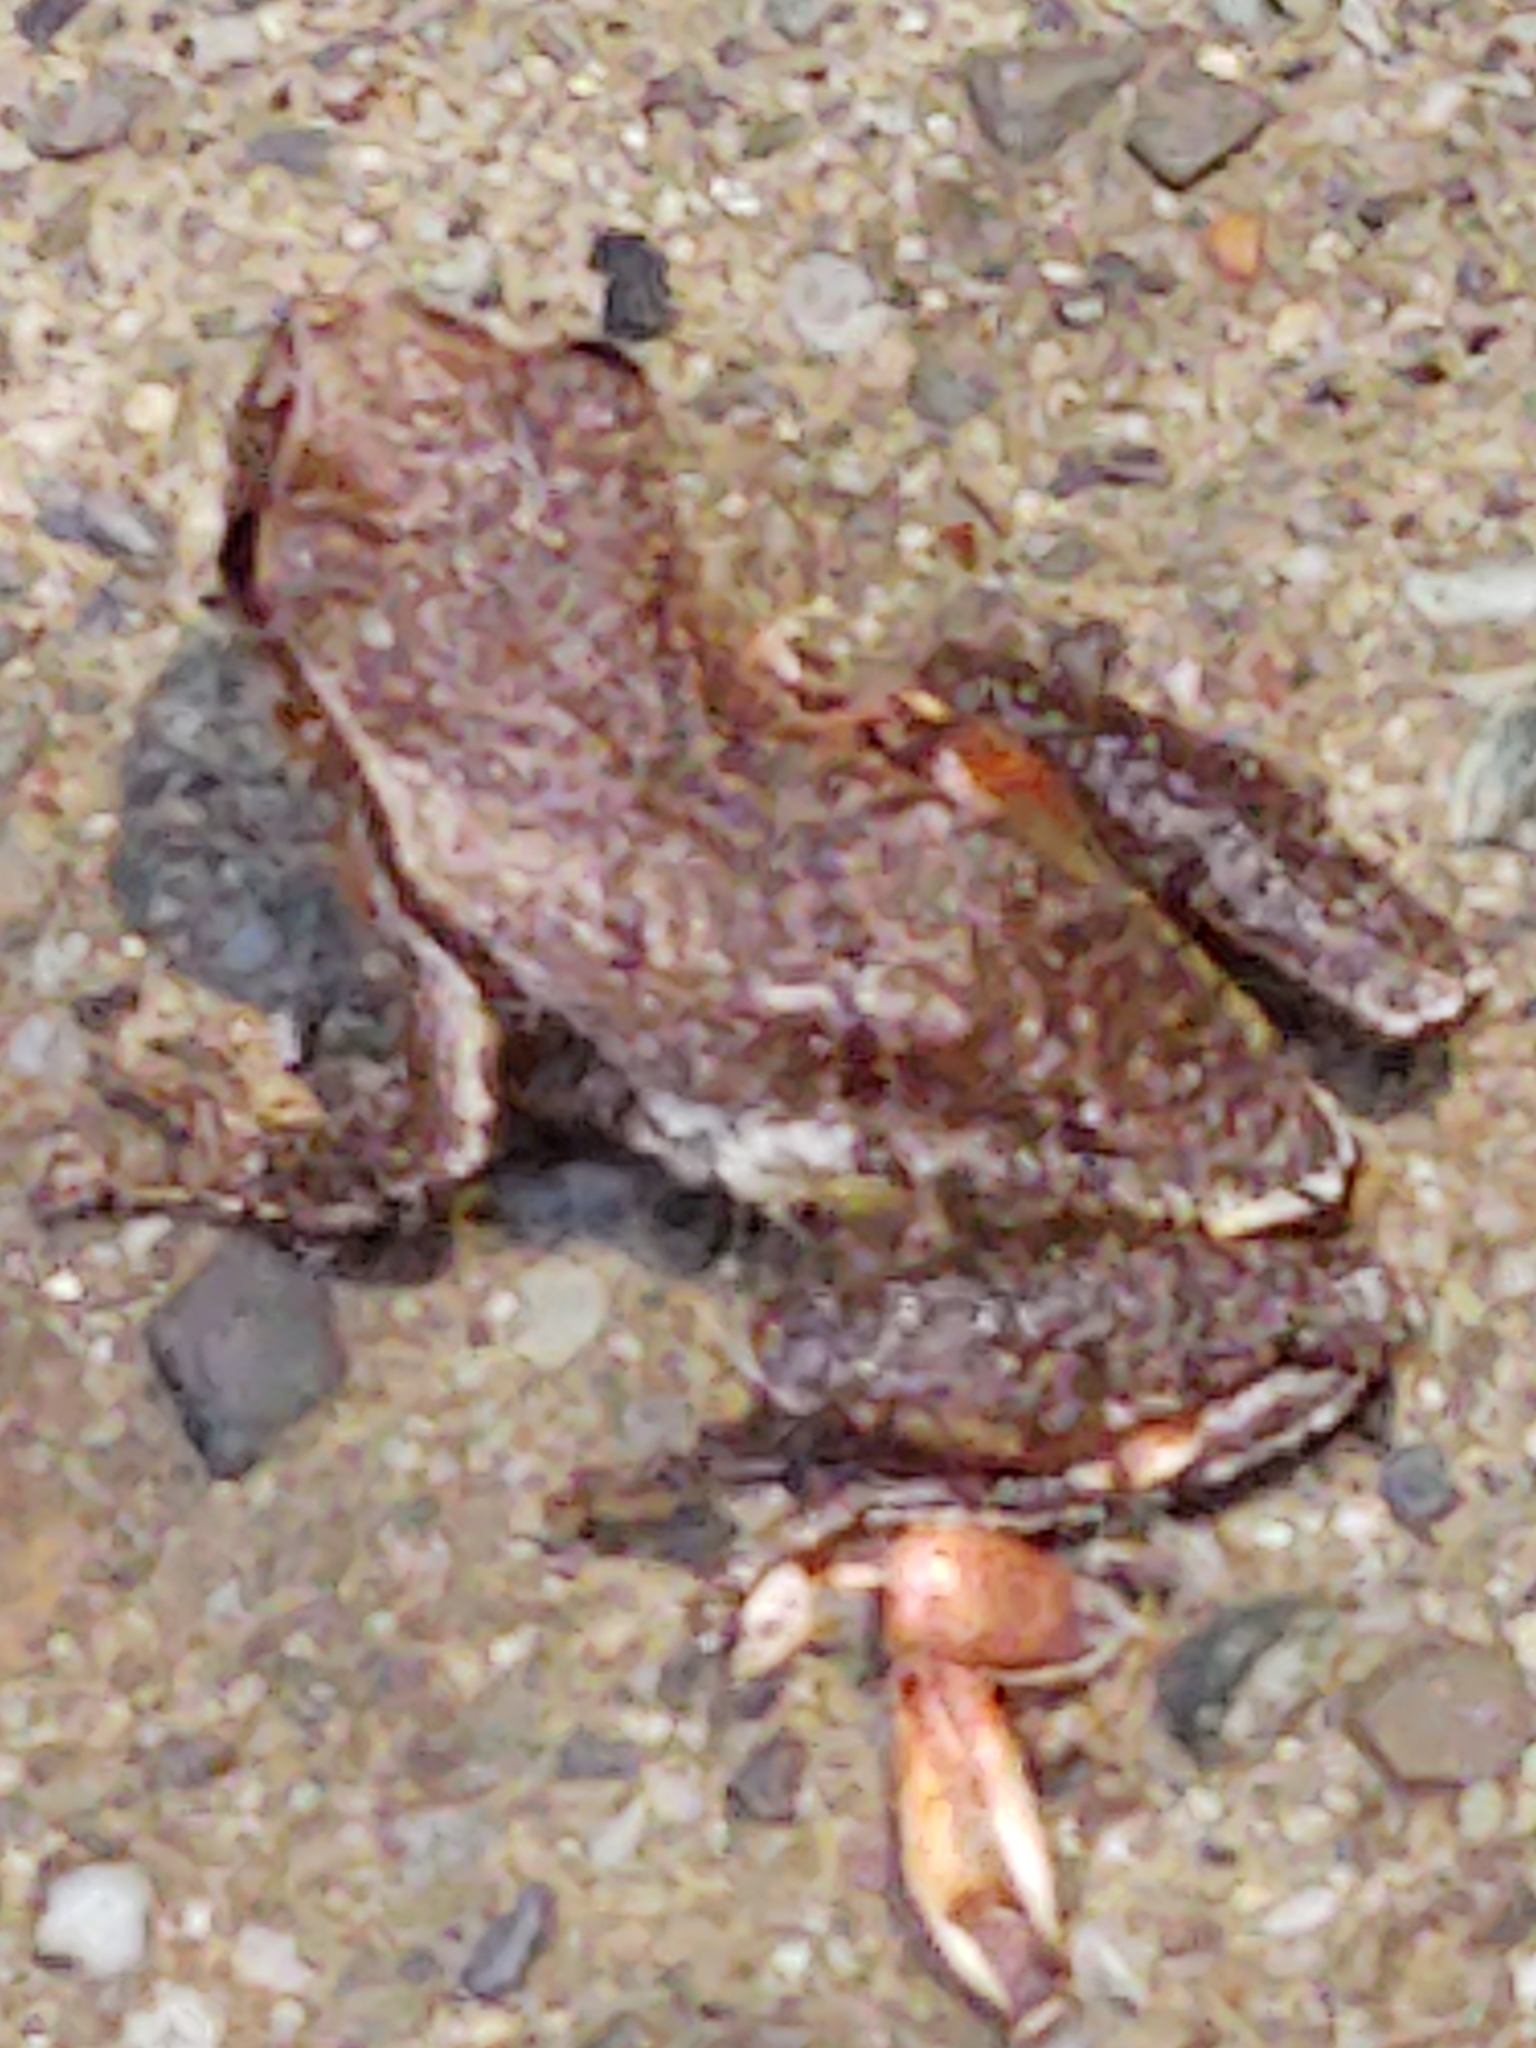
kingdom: Animalia
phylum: Chordata
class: Amphibia
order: Anura
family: Hylidae
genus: Pseudacris
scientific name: Pseudacris crucifer
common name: Spring peeper
